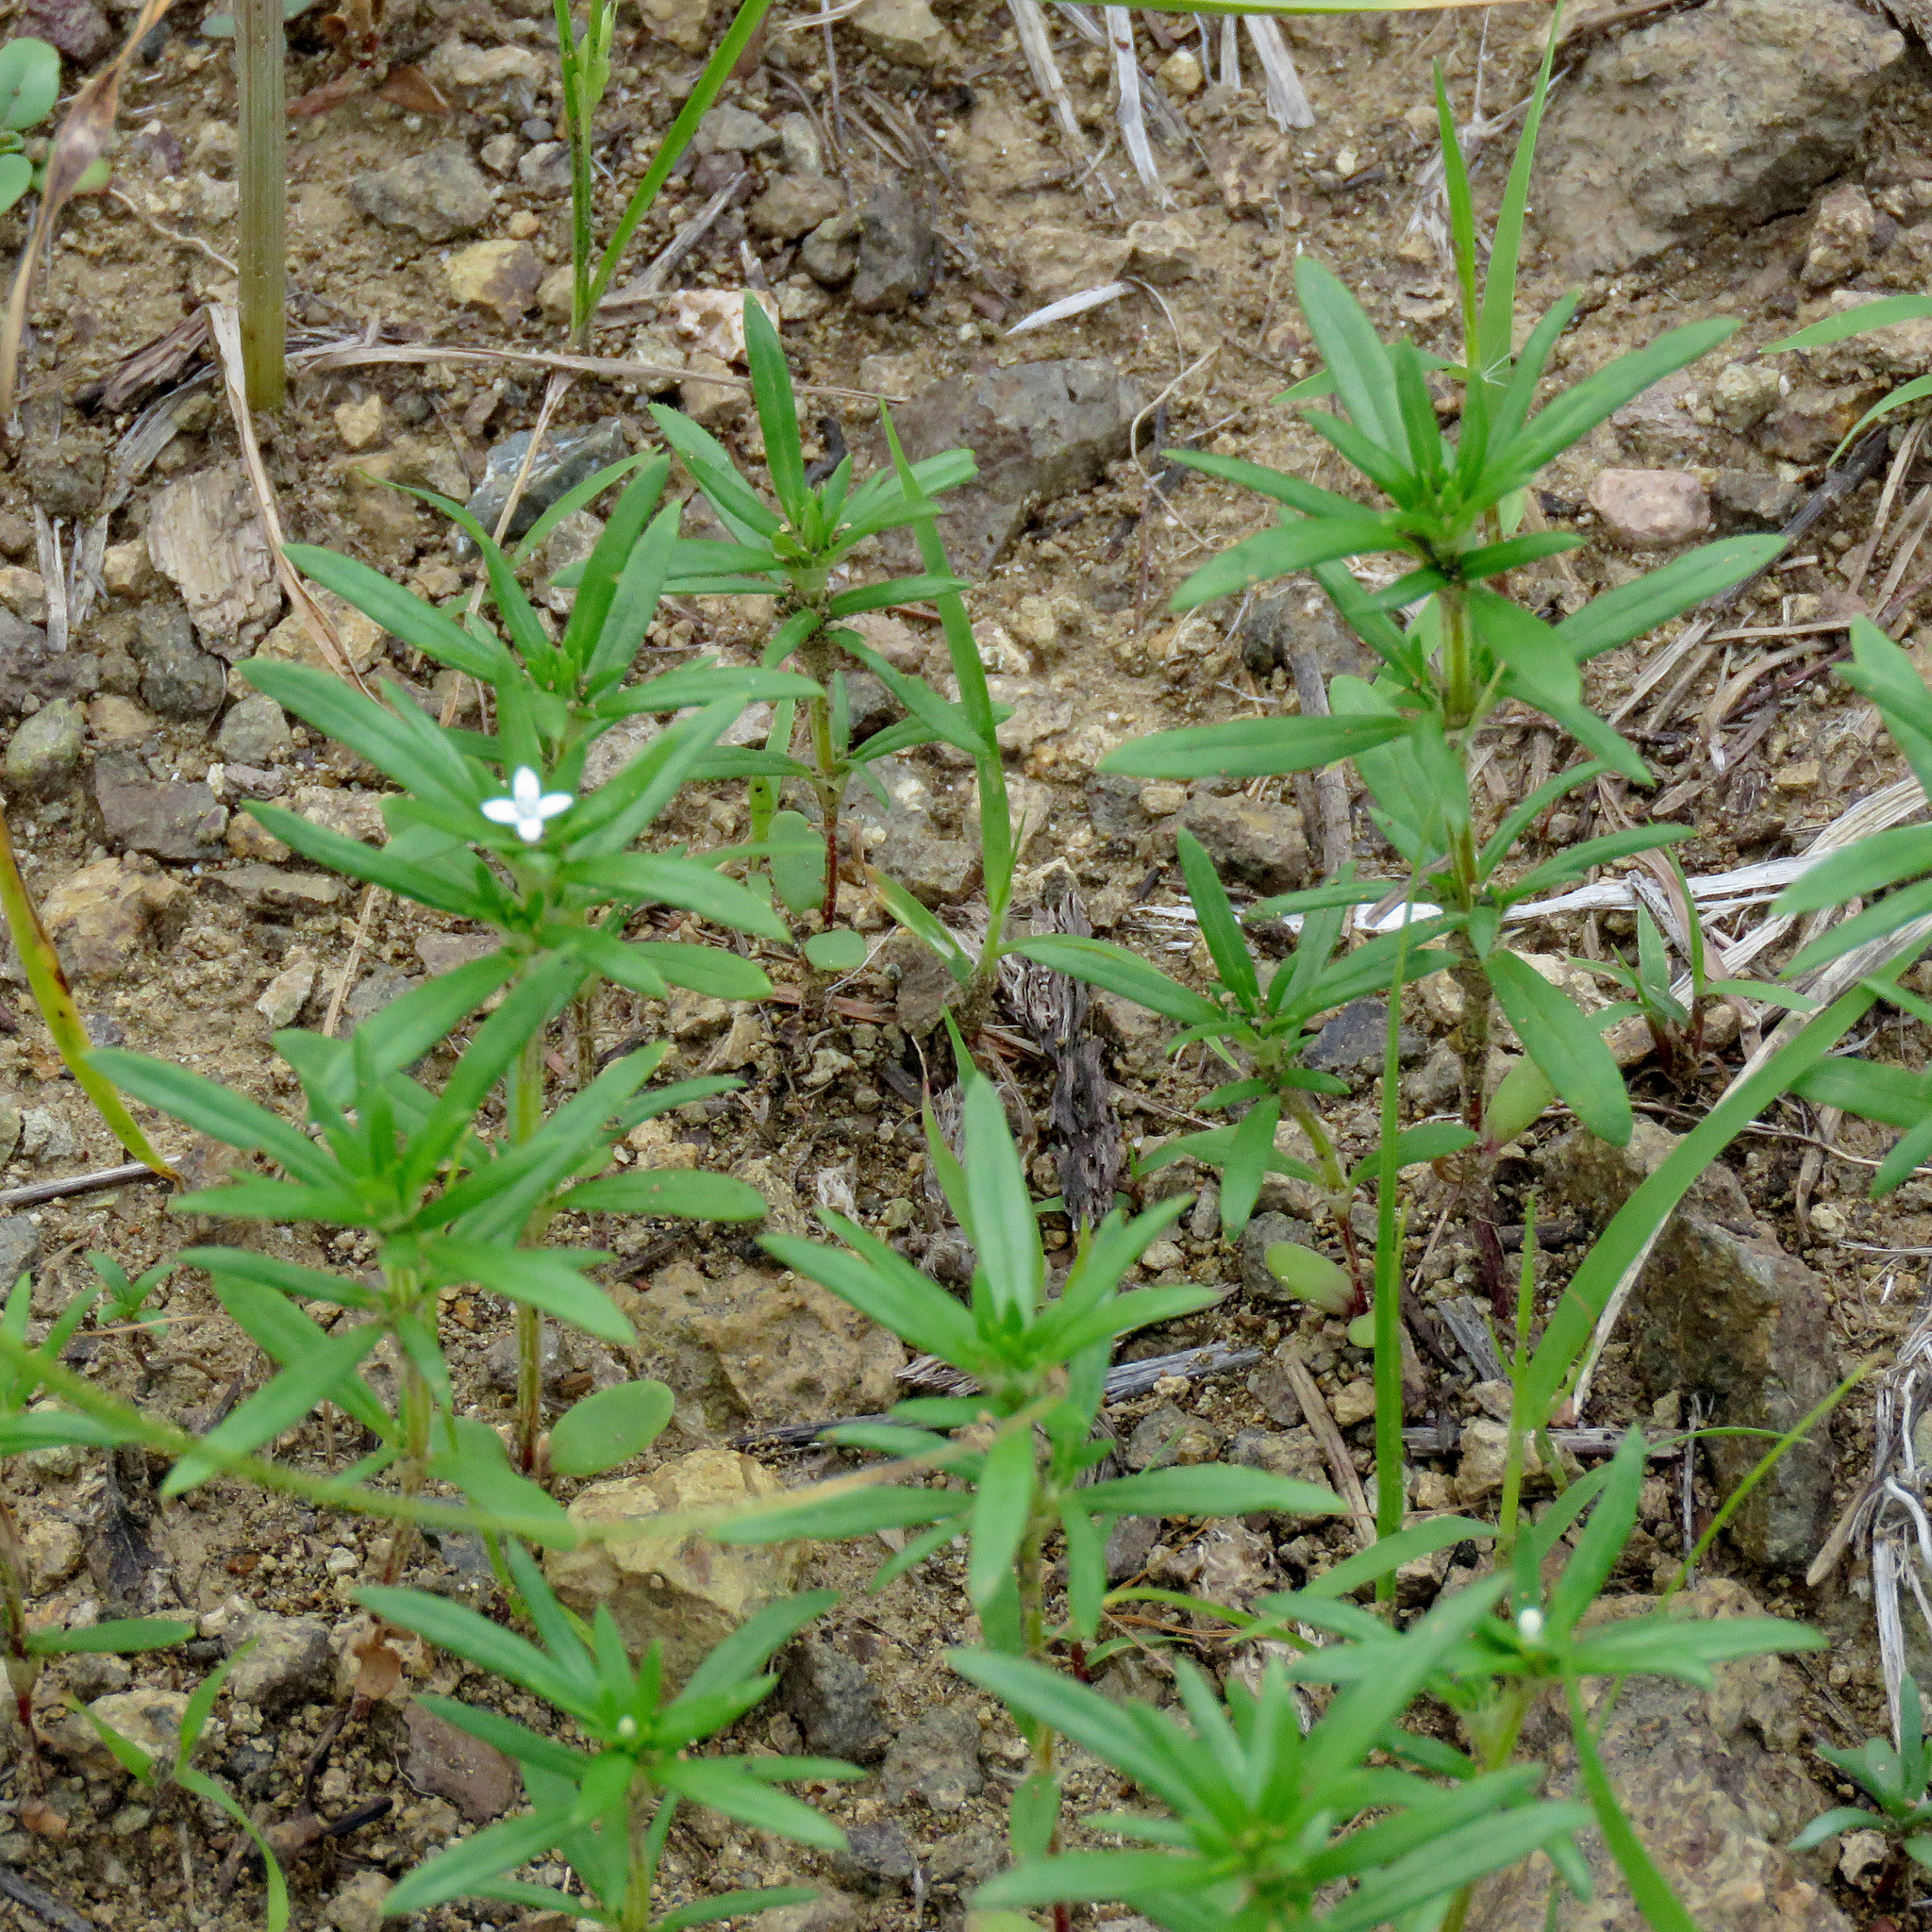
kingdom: Plantae
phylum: Tracheophyta
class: Magnoliopsida
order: Gentianales
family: Rubiaceae
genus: Crusea
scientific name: Crusea simplex
